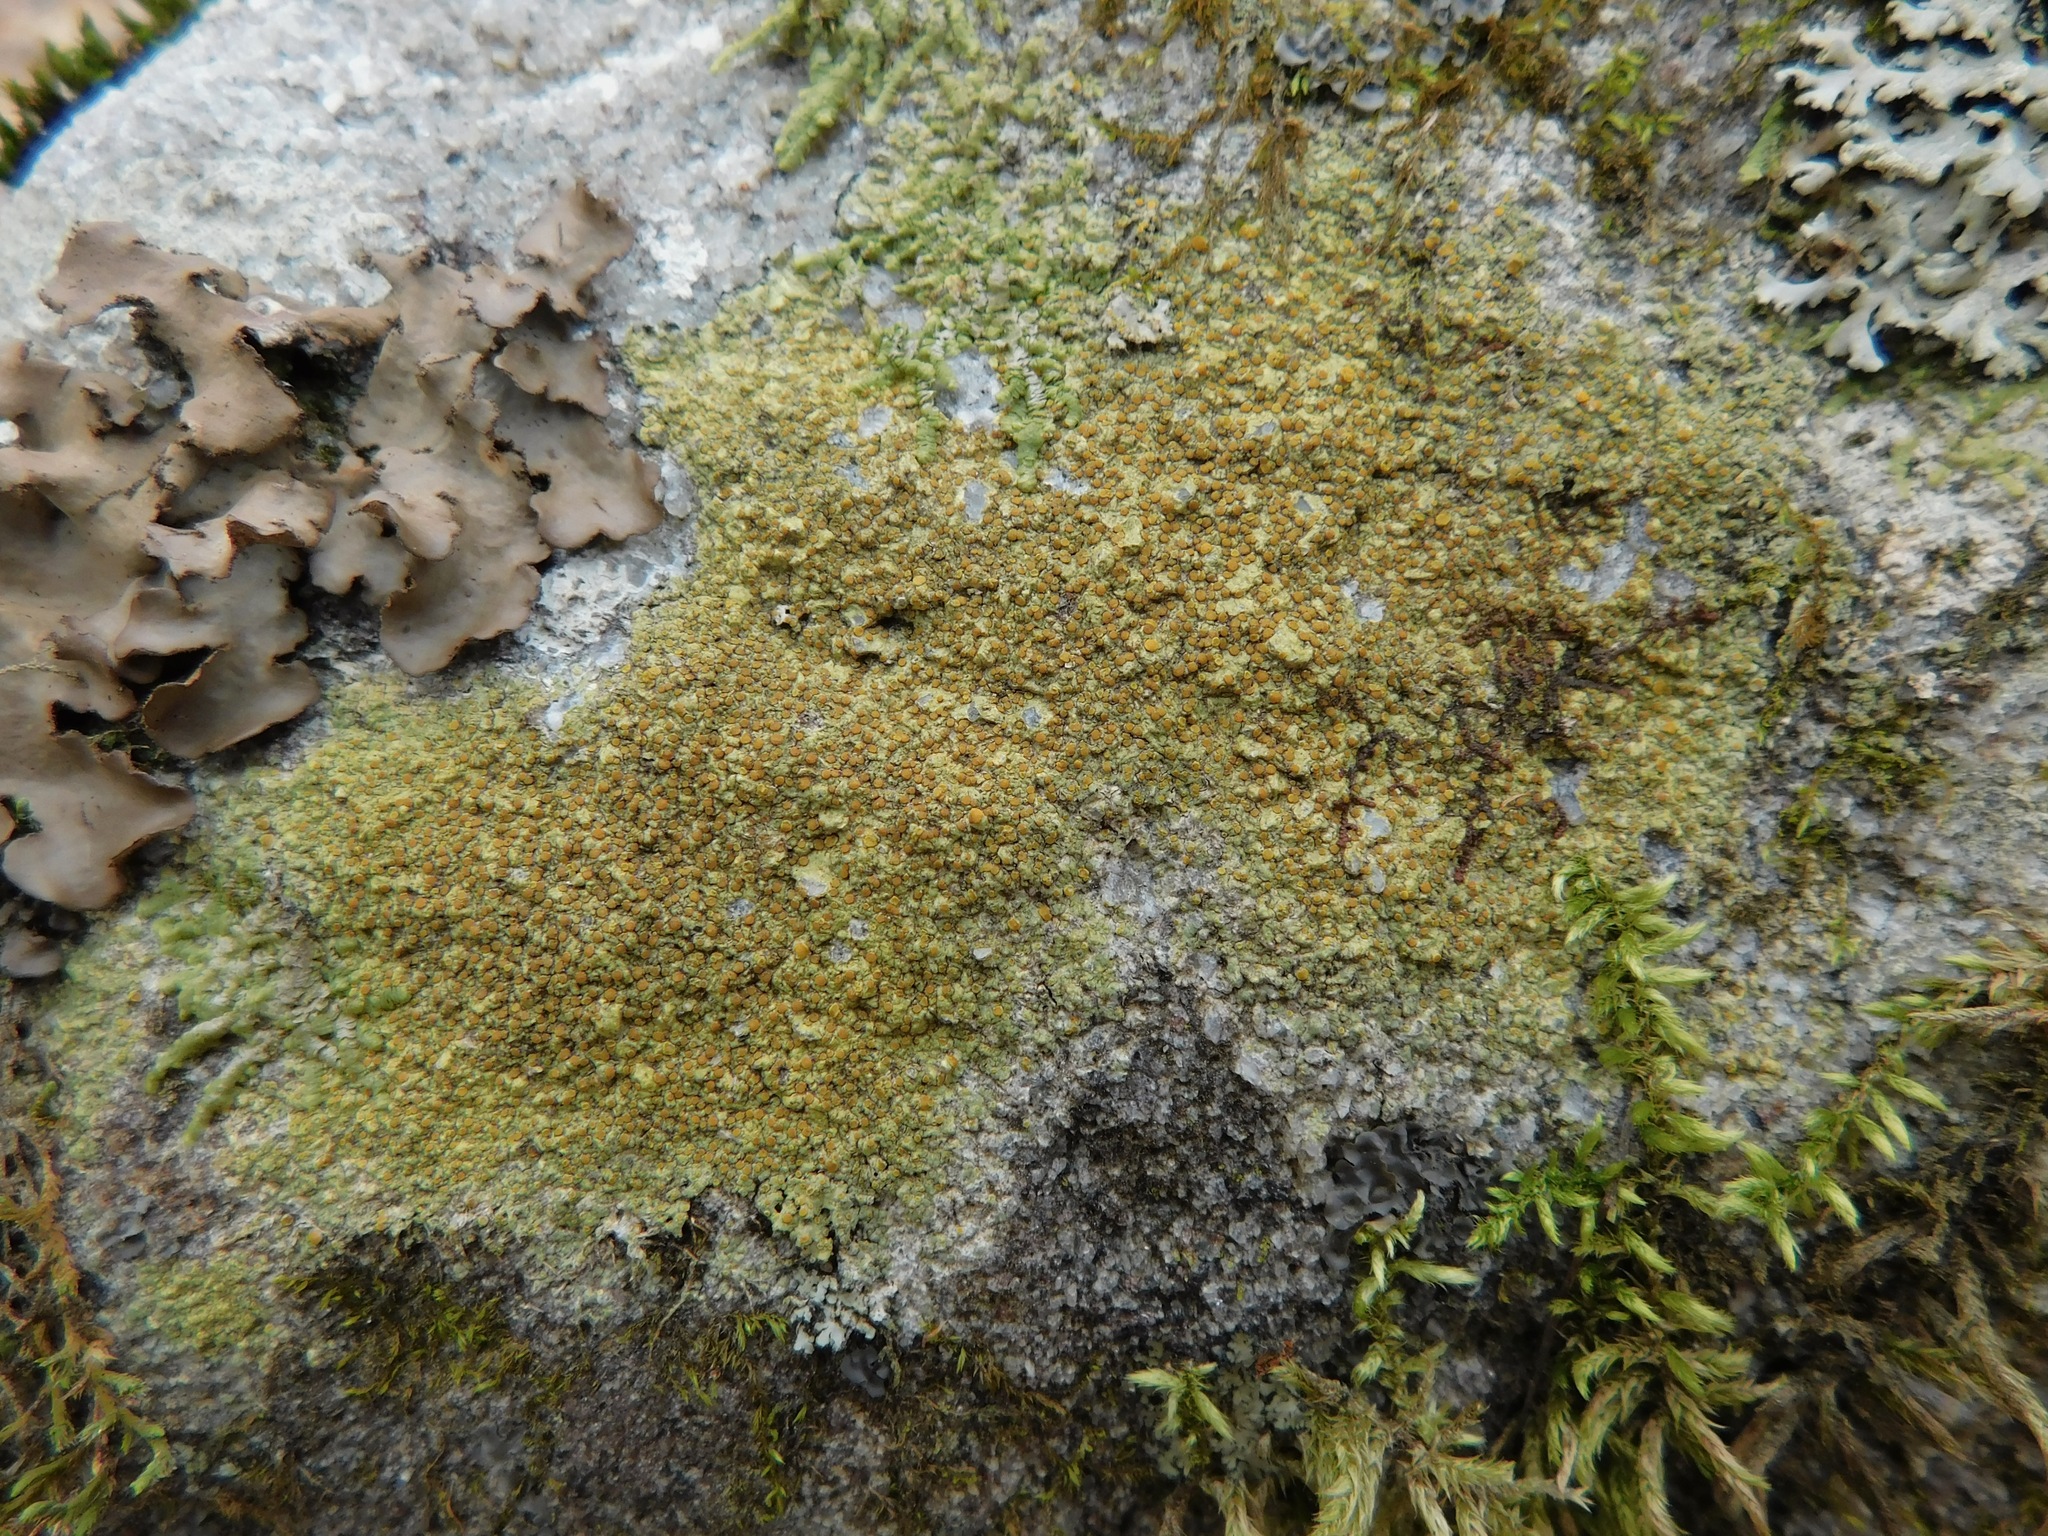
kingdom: Fungi
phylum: Ascomycota
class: Lecanoromycetes
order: Teloschistales
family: Teloschistaceae
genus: Gyalolechia
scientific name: Gyalolechia flavovirescens
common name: Sulphur firedot
